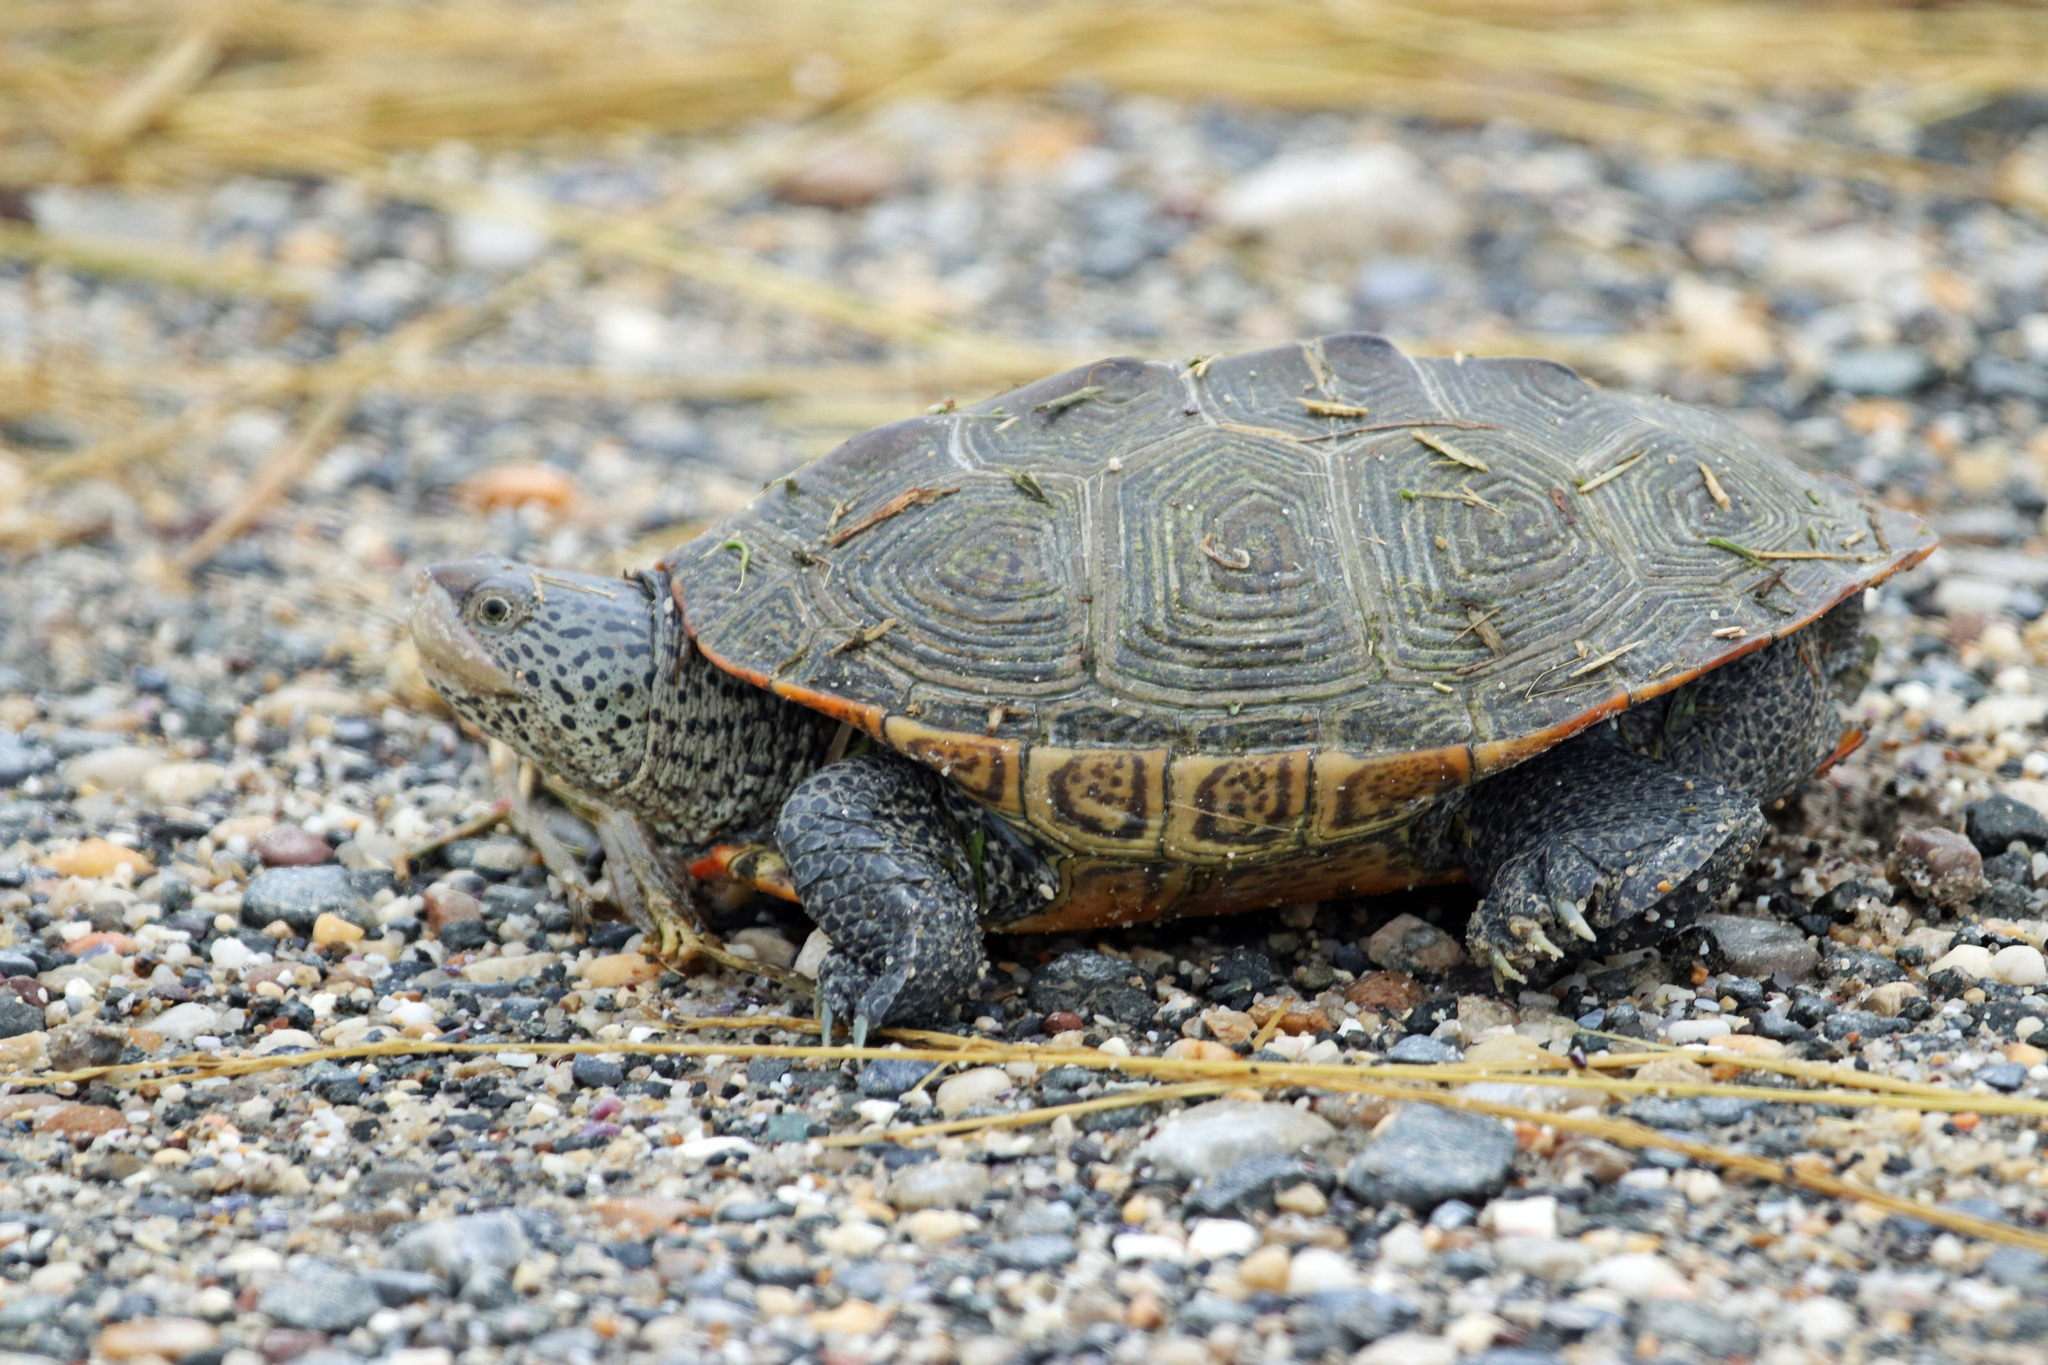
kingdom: Animalia
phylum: Chordata
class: Testudines
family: Emydidae
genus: Malaclemys
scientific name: Malaclemys terrapin
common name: Diamondback terrapin
